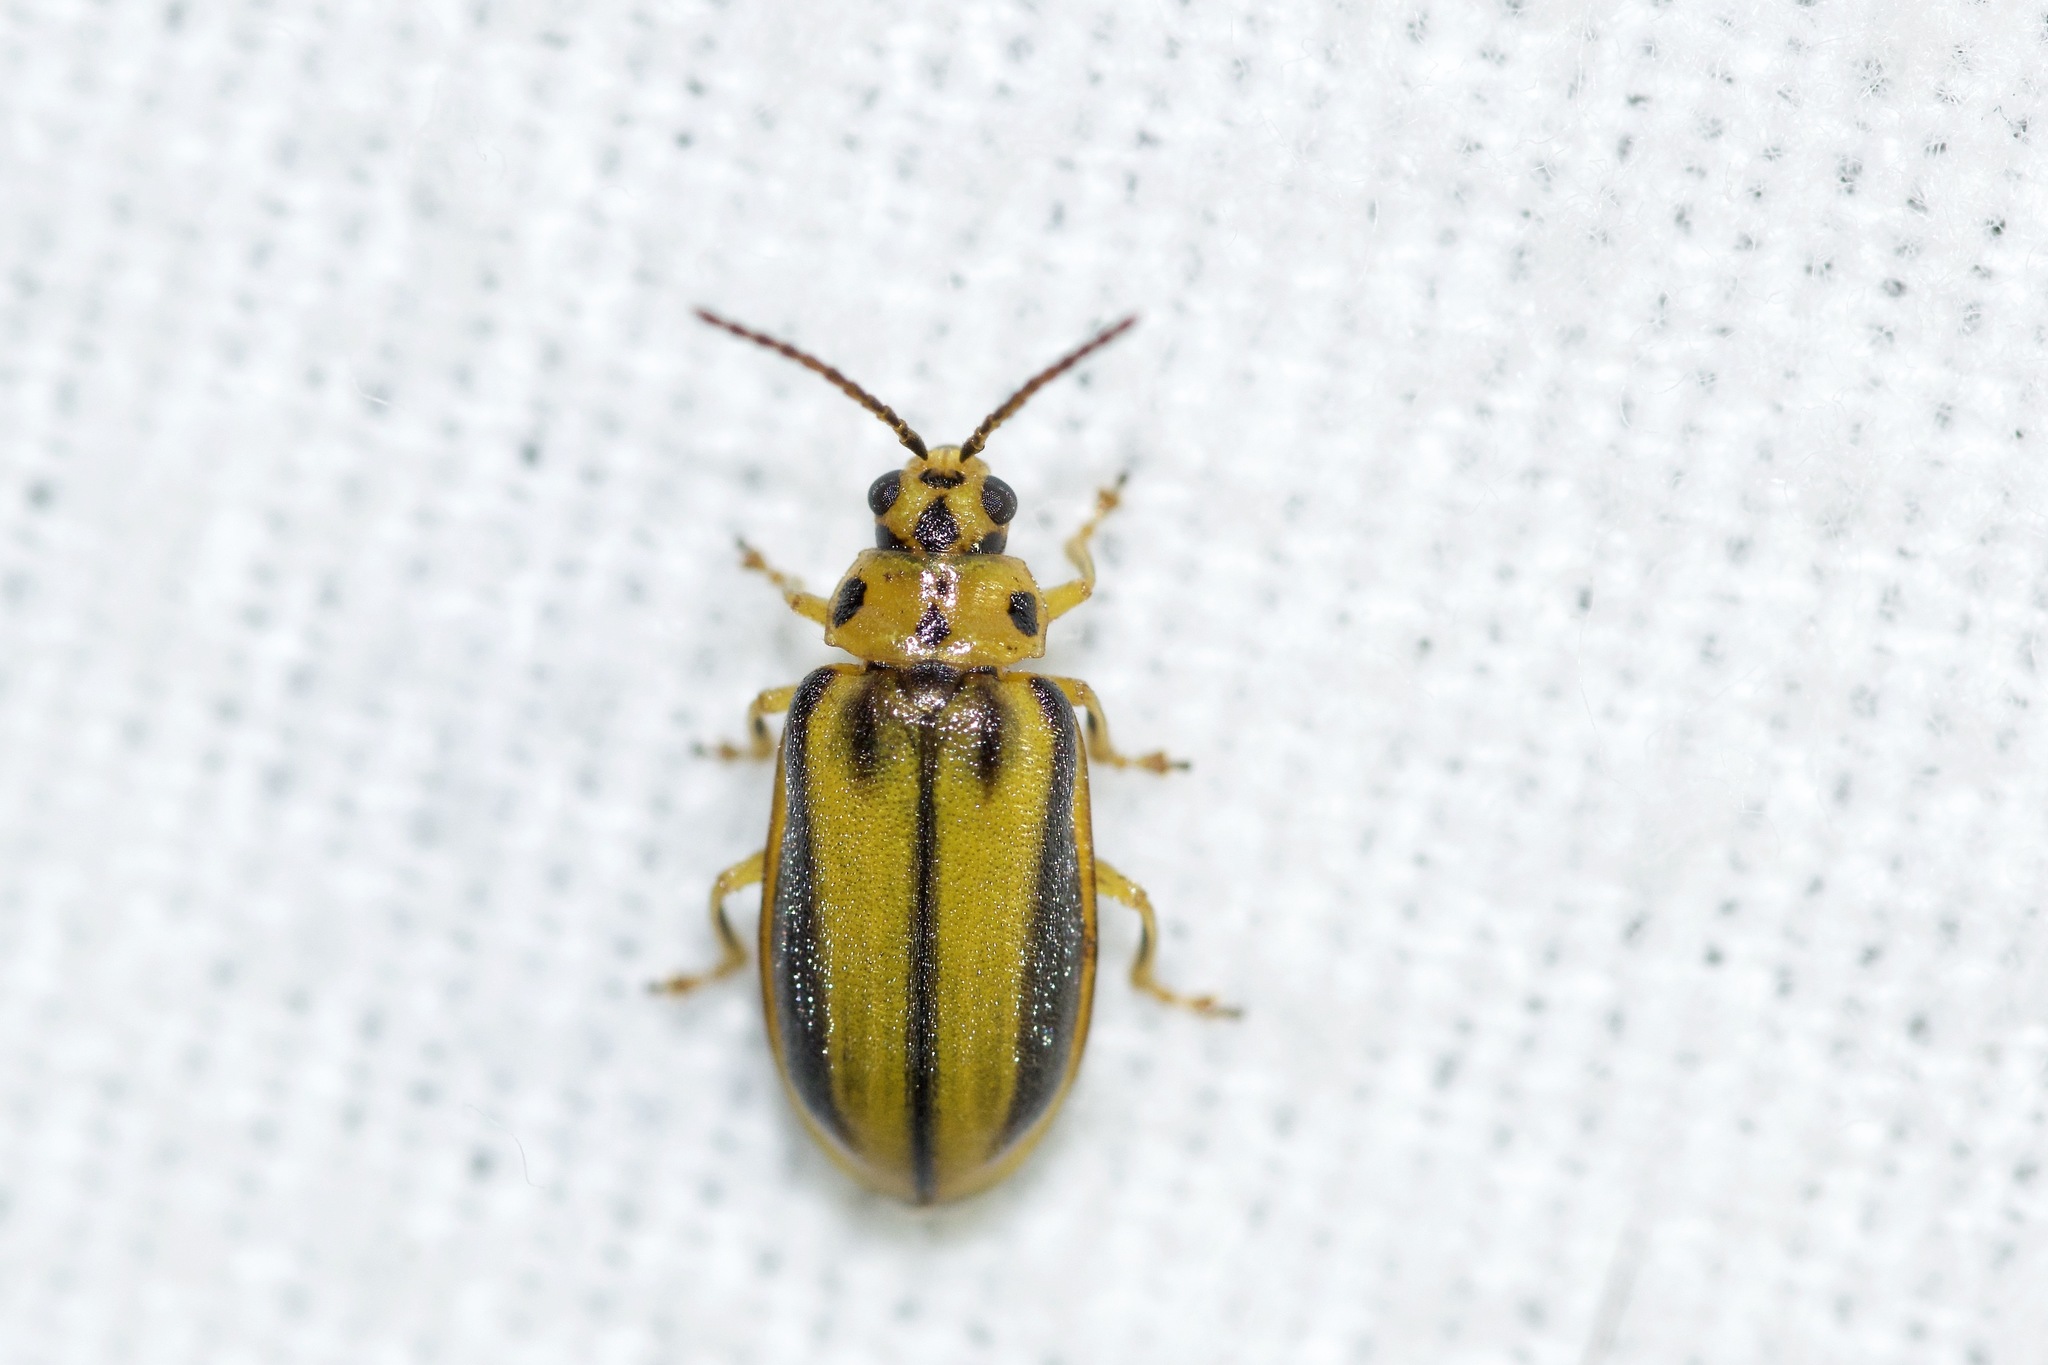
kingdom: Animalia
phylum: Arthropoda
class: Insecta
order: Coleoptera
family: Chrysomelidae
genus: Xanthogaleruca
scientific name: Xanthogaleruca luteola
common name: Elm leaf beetle
